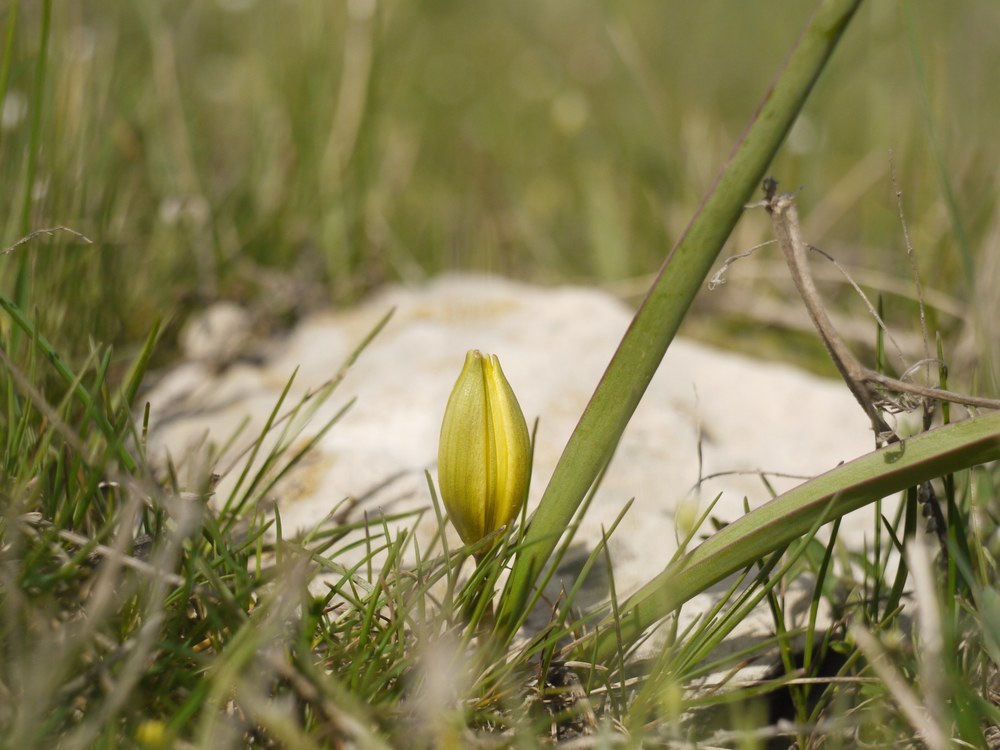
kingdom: Plantae
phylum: Tracheophyta
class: Liliopsida
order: Liliales
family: Liliaceae
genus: Tulipa
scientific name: Tulipa sylvestris
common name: Wild tulip
